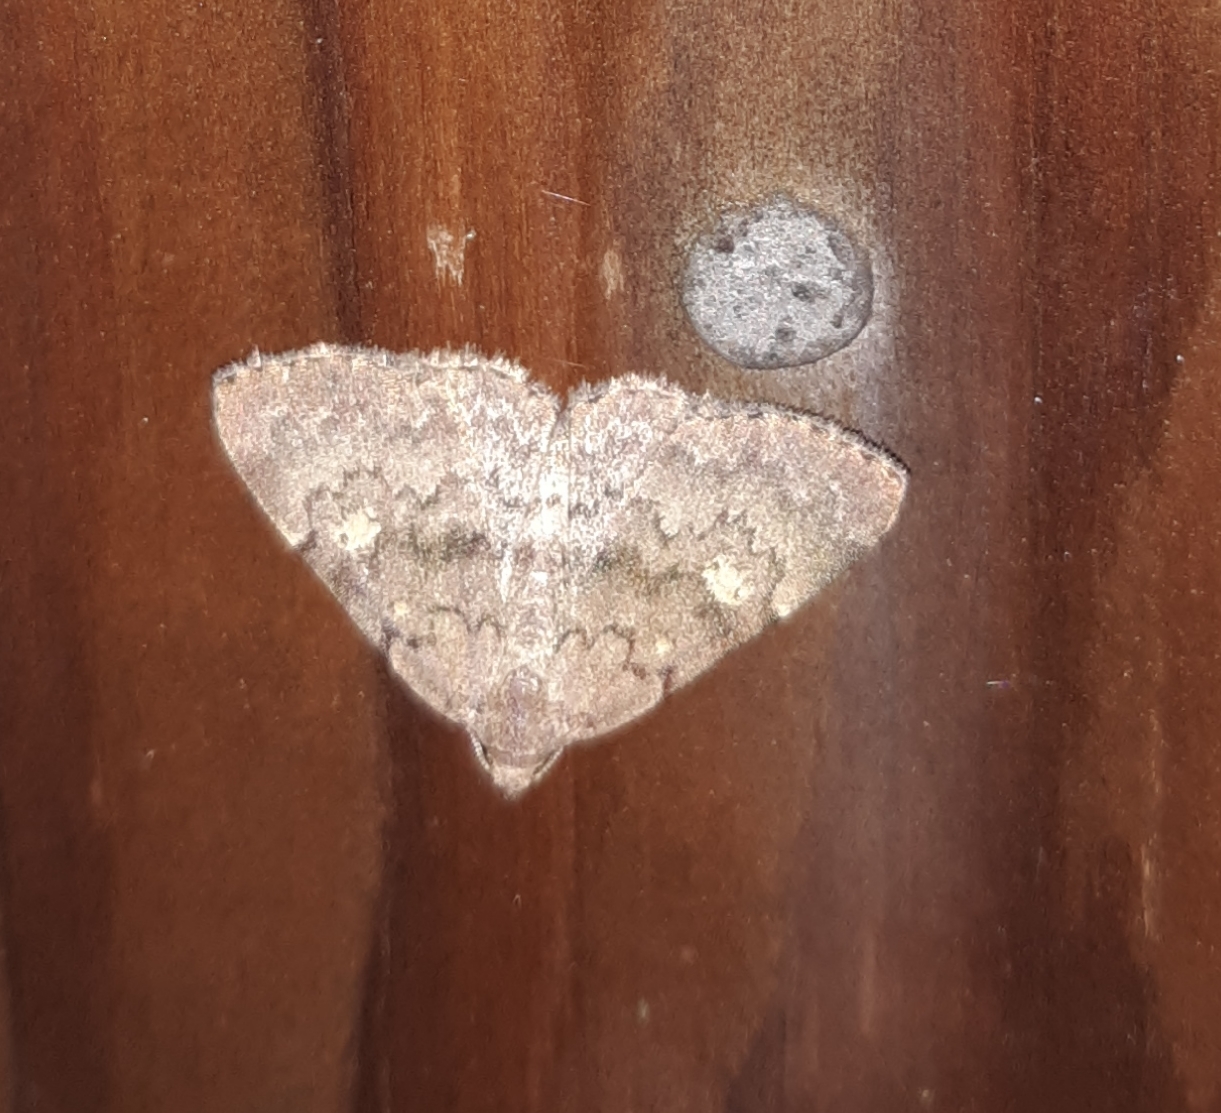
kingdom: Animalia
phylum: Arthropoda
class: Insecta
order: Lepidoptera
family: Erebidae
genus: Idia
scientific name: Idia aemula
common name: Common idia moth
